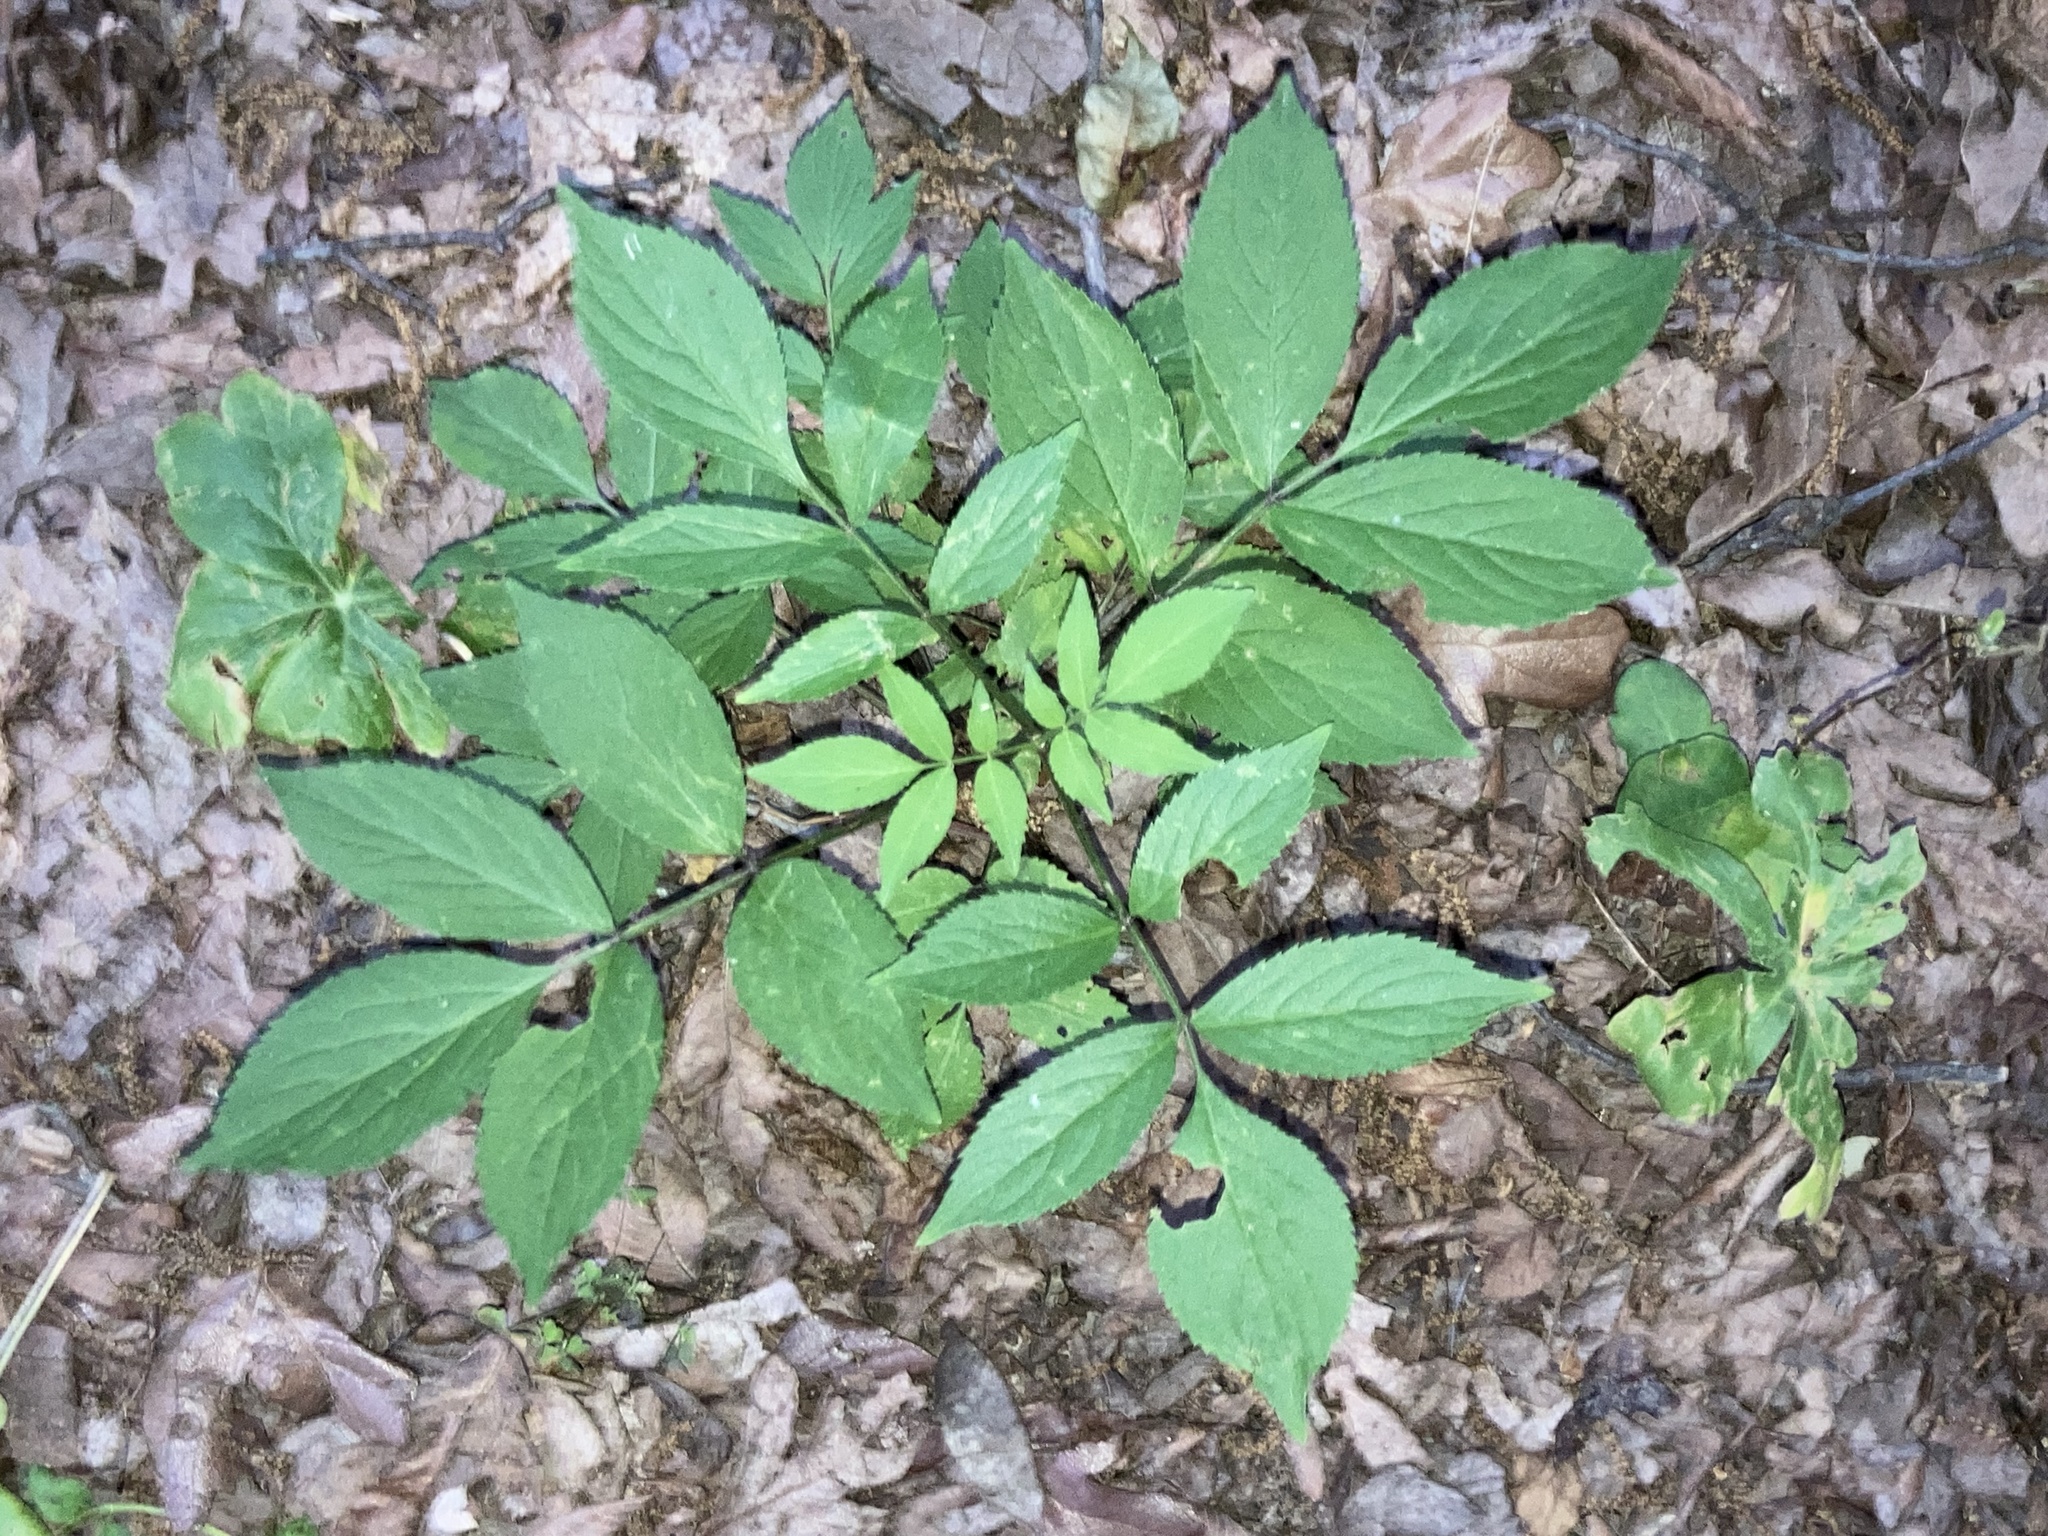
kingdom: Plantae
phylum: Tracheophyta
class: Magnoliopsida
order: Dipsacales
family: Viburnaceae
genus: Sambucus
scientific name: Sambucus canadensis
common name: American elder
